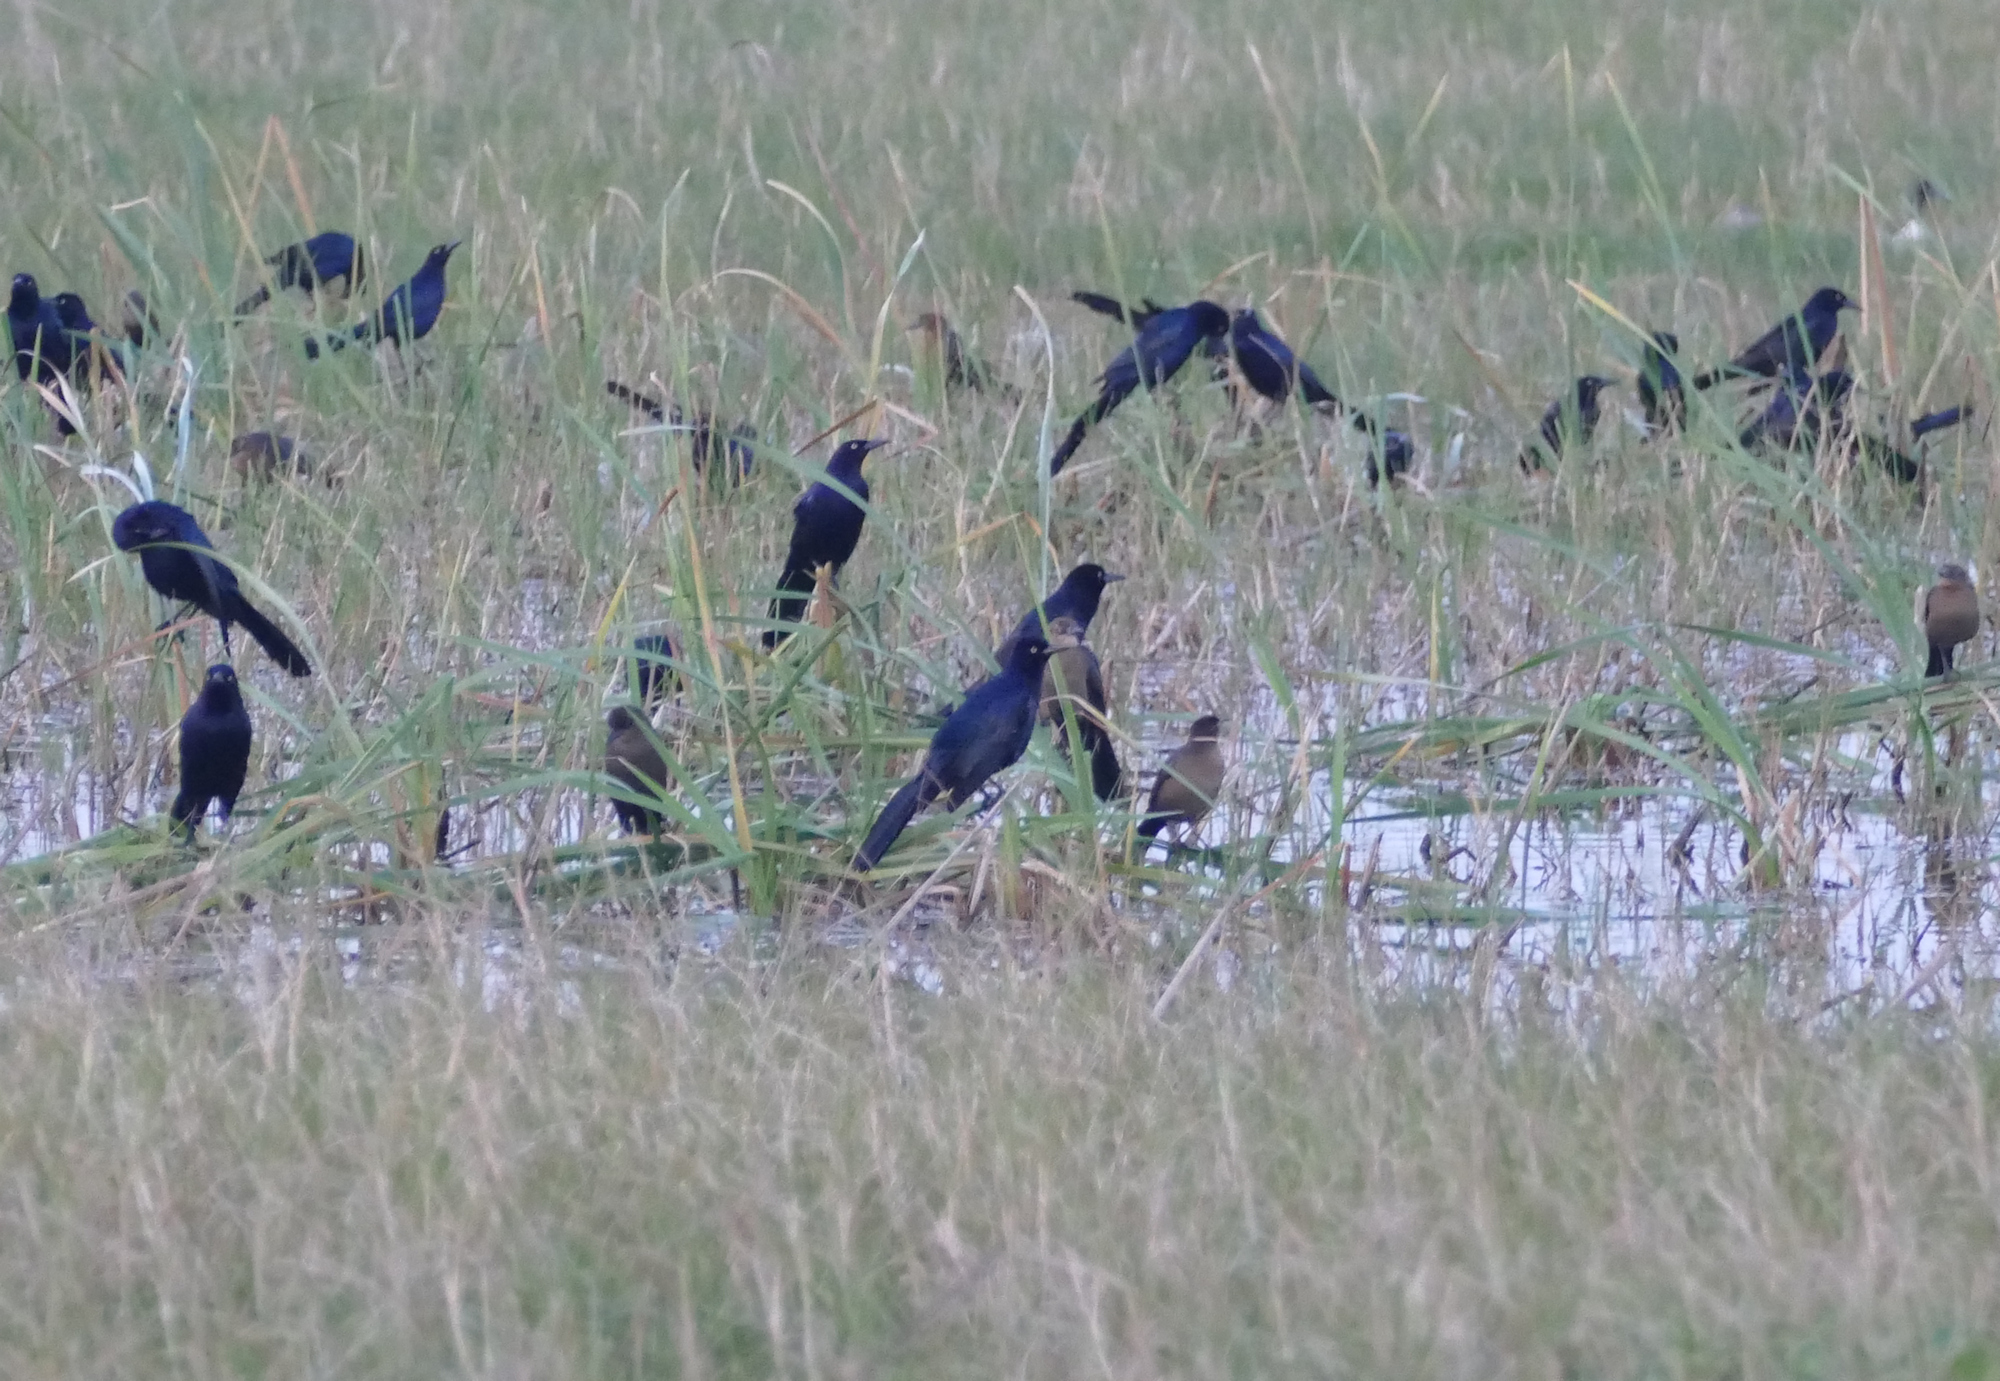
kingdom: Animalia
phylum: Chordata
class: Aves
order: Passeriformes
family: Icteridae
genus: Quiscalus
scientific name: Quiscalus mexicanus
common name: Great-tailed grackle
